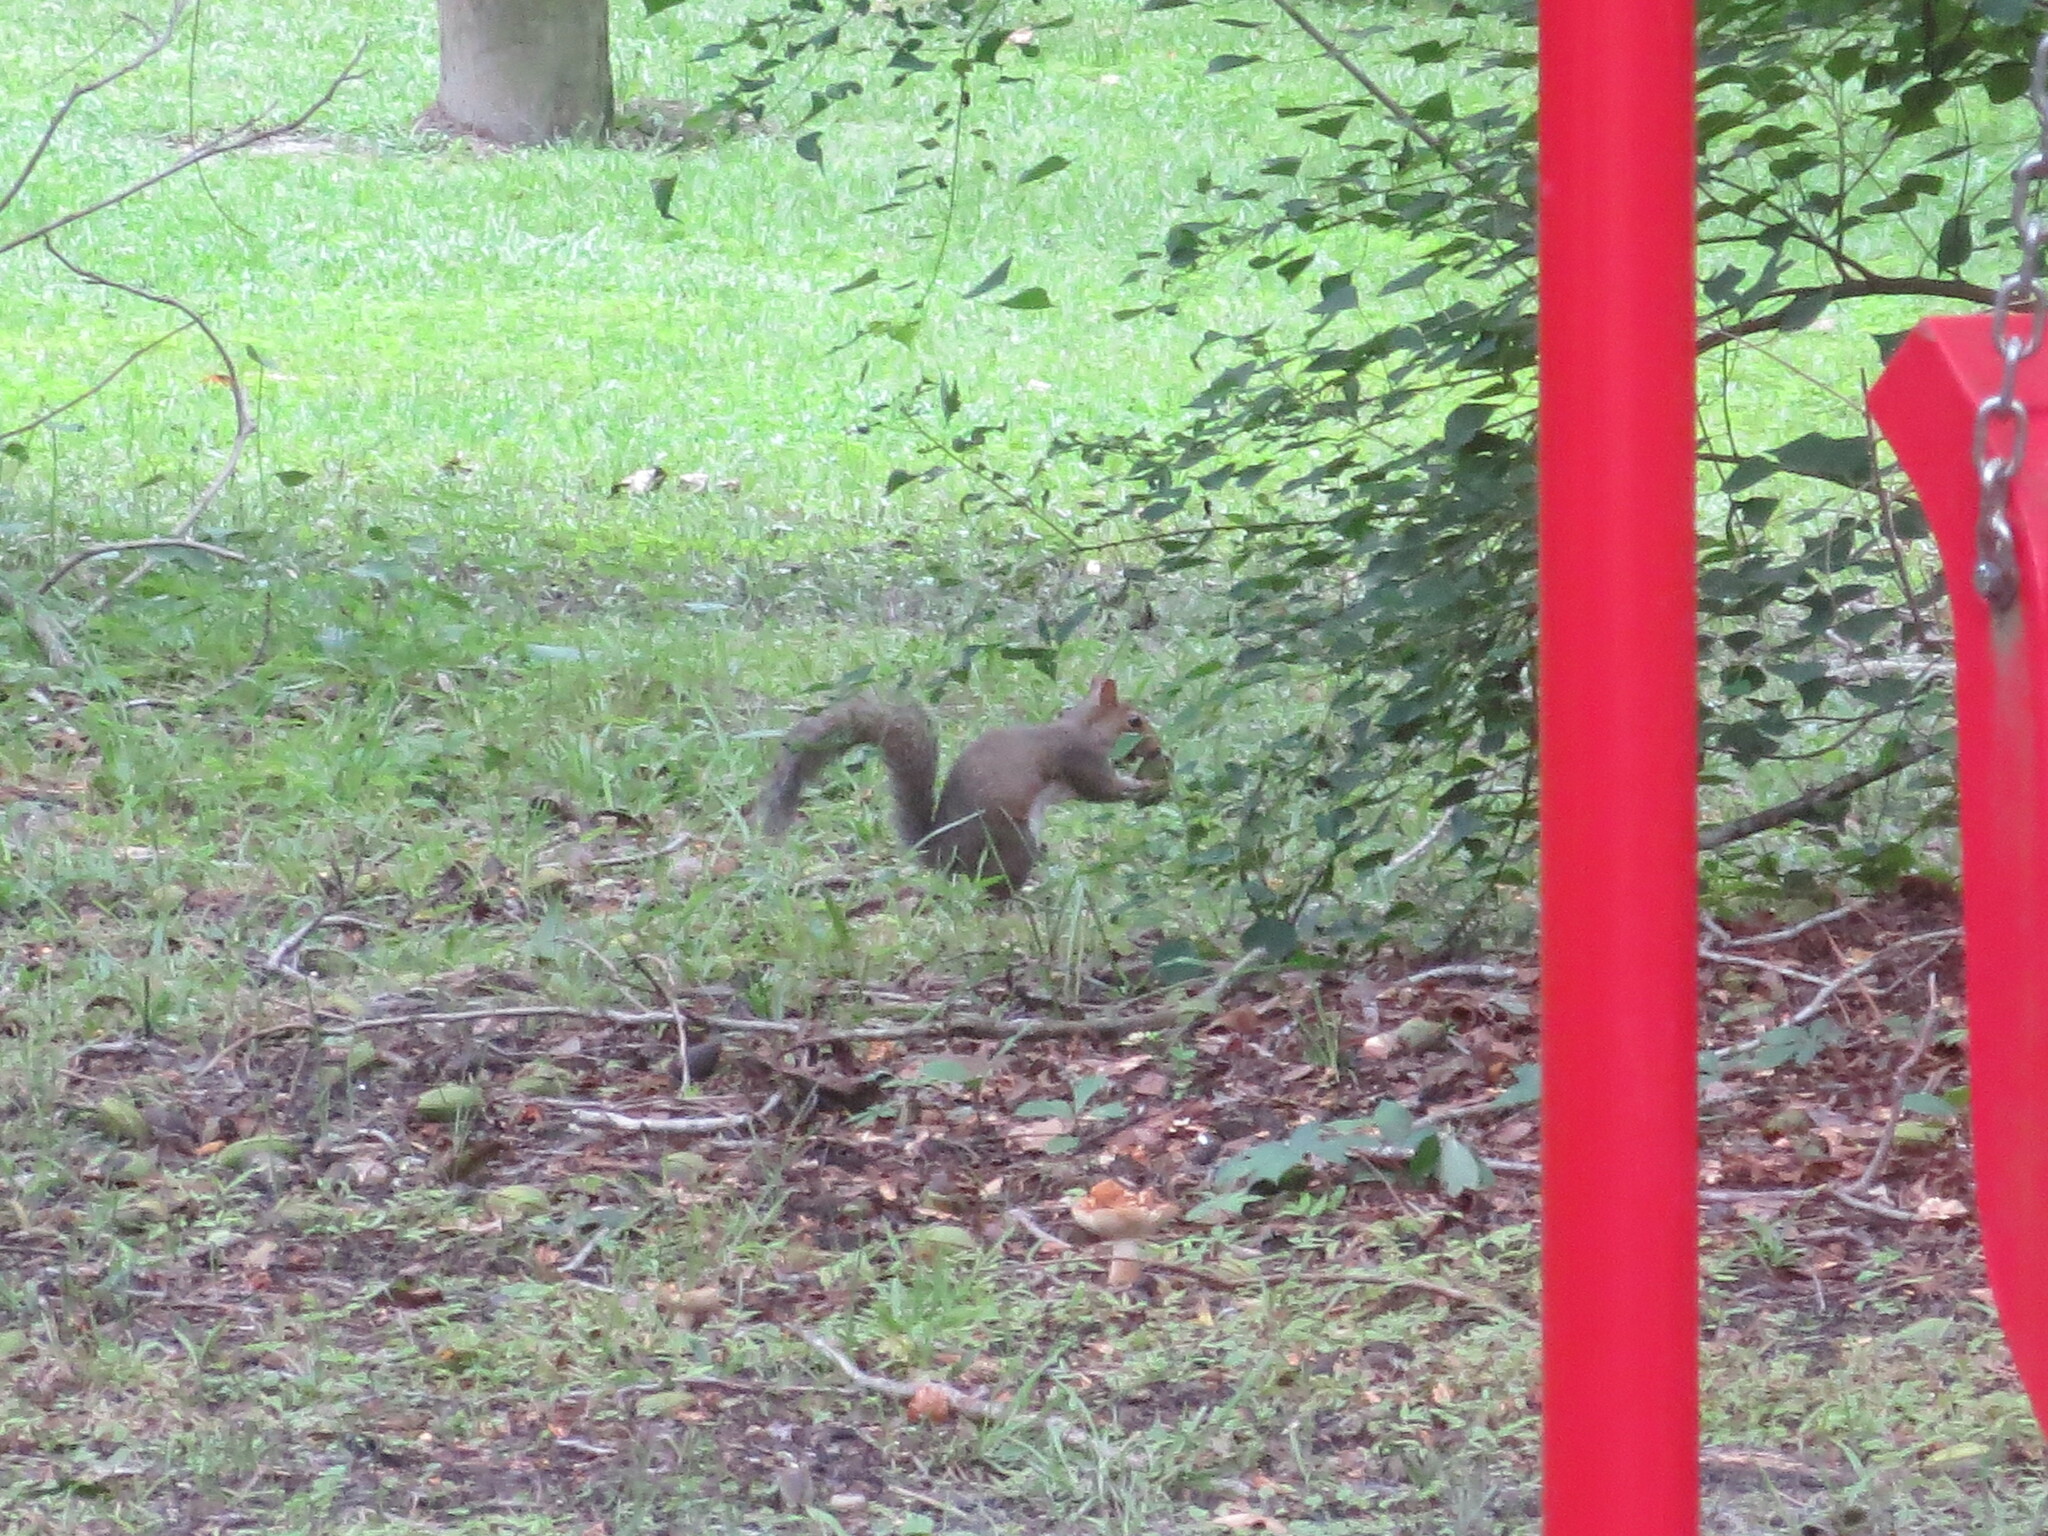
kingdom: Animalia
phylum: Chordata
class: Mammalia
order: Rodentia
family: Sciuridae
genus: Sciurus
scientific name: Sciurus carolinensis
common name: Eastern gray squirrel
